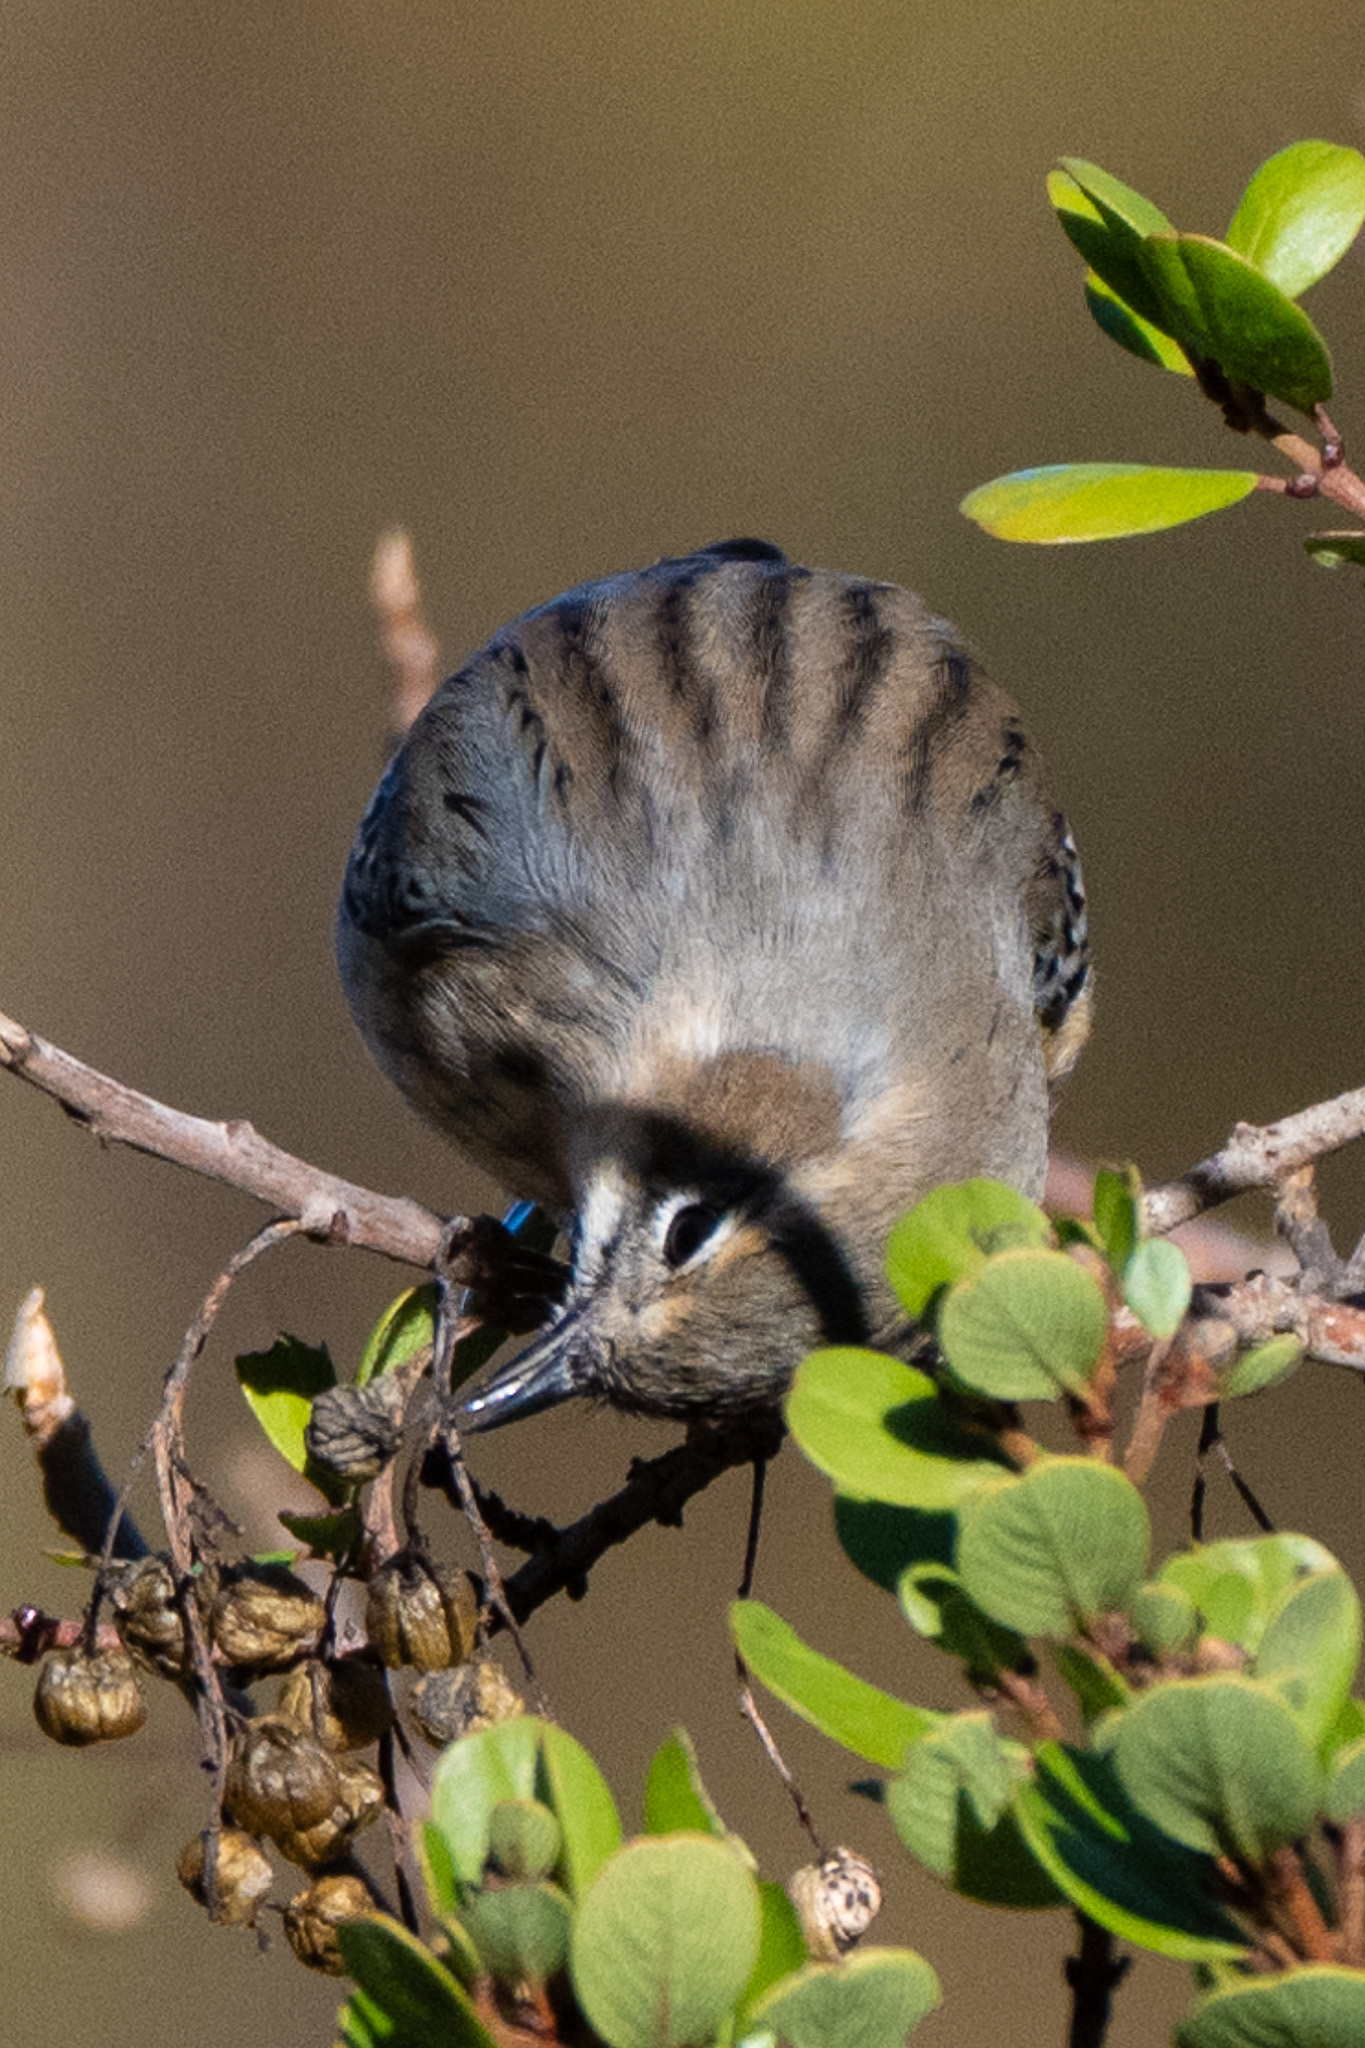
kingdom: Animalia
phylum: Chordata
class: Aves
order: Passeriformes
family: Parulidae
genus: Setophaga
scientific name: Setophaga coronata
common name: Myrtle warbler
